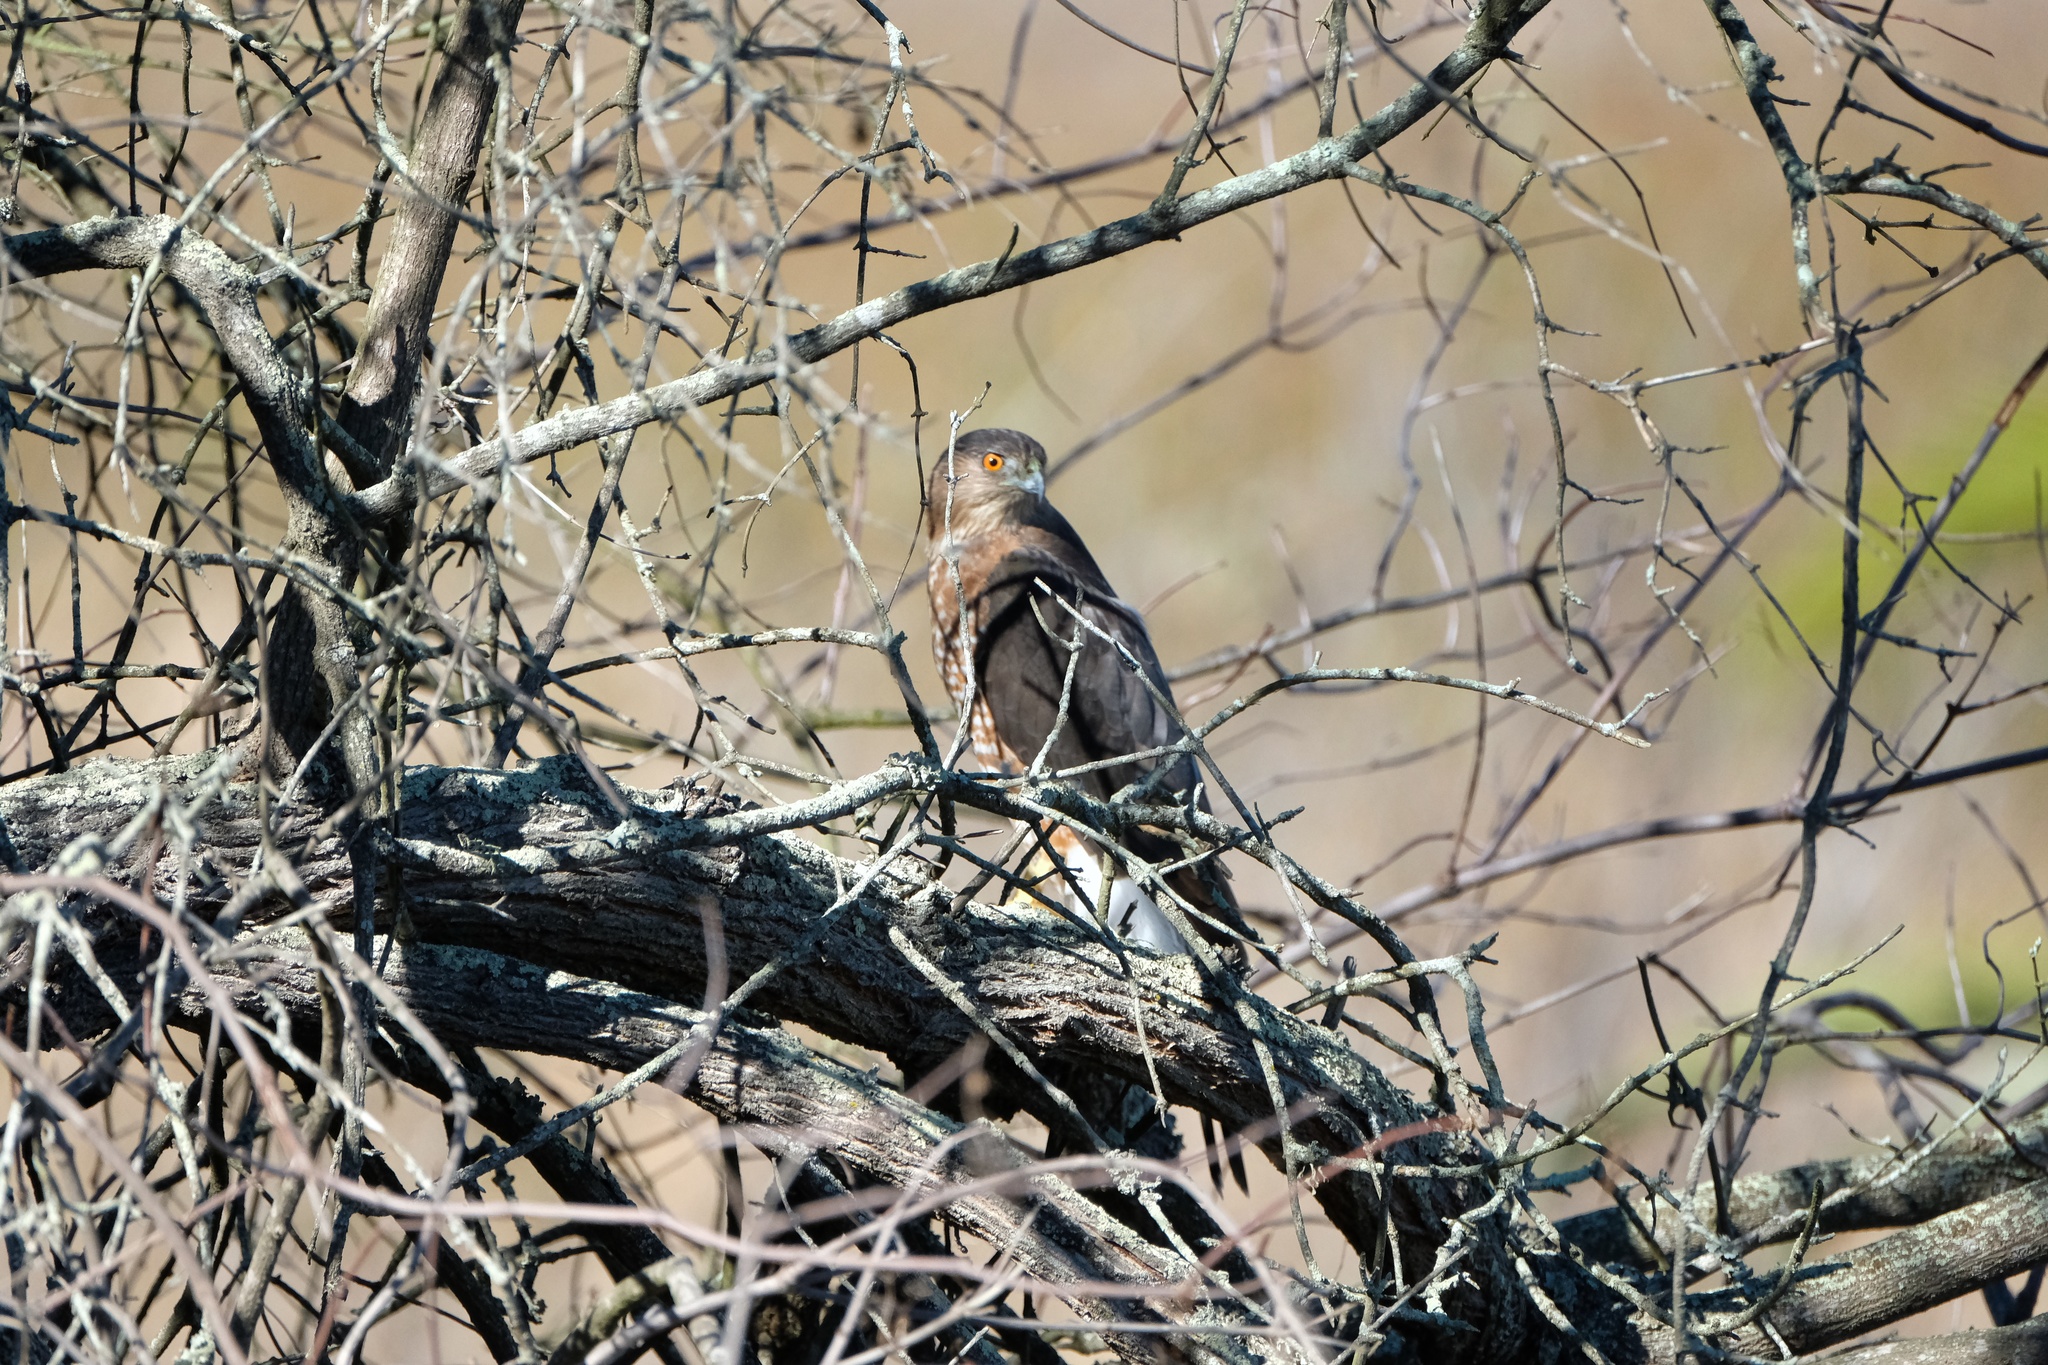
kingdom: Animalia
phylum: Chordata
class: Aves
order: Accipitriformes
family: Accipitridae
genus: Accipiter
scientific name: Accipiter cooperii
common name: Cooper's hawk
